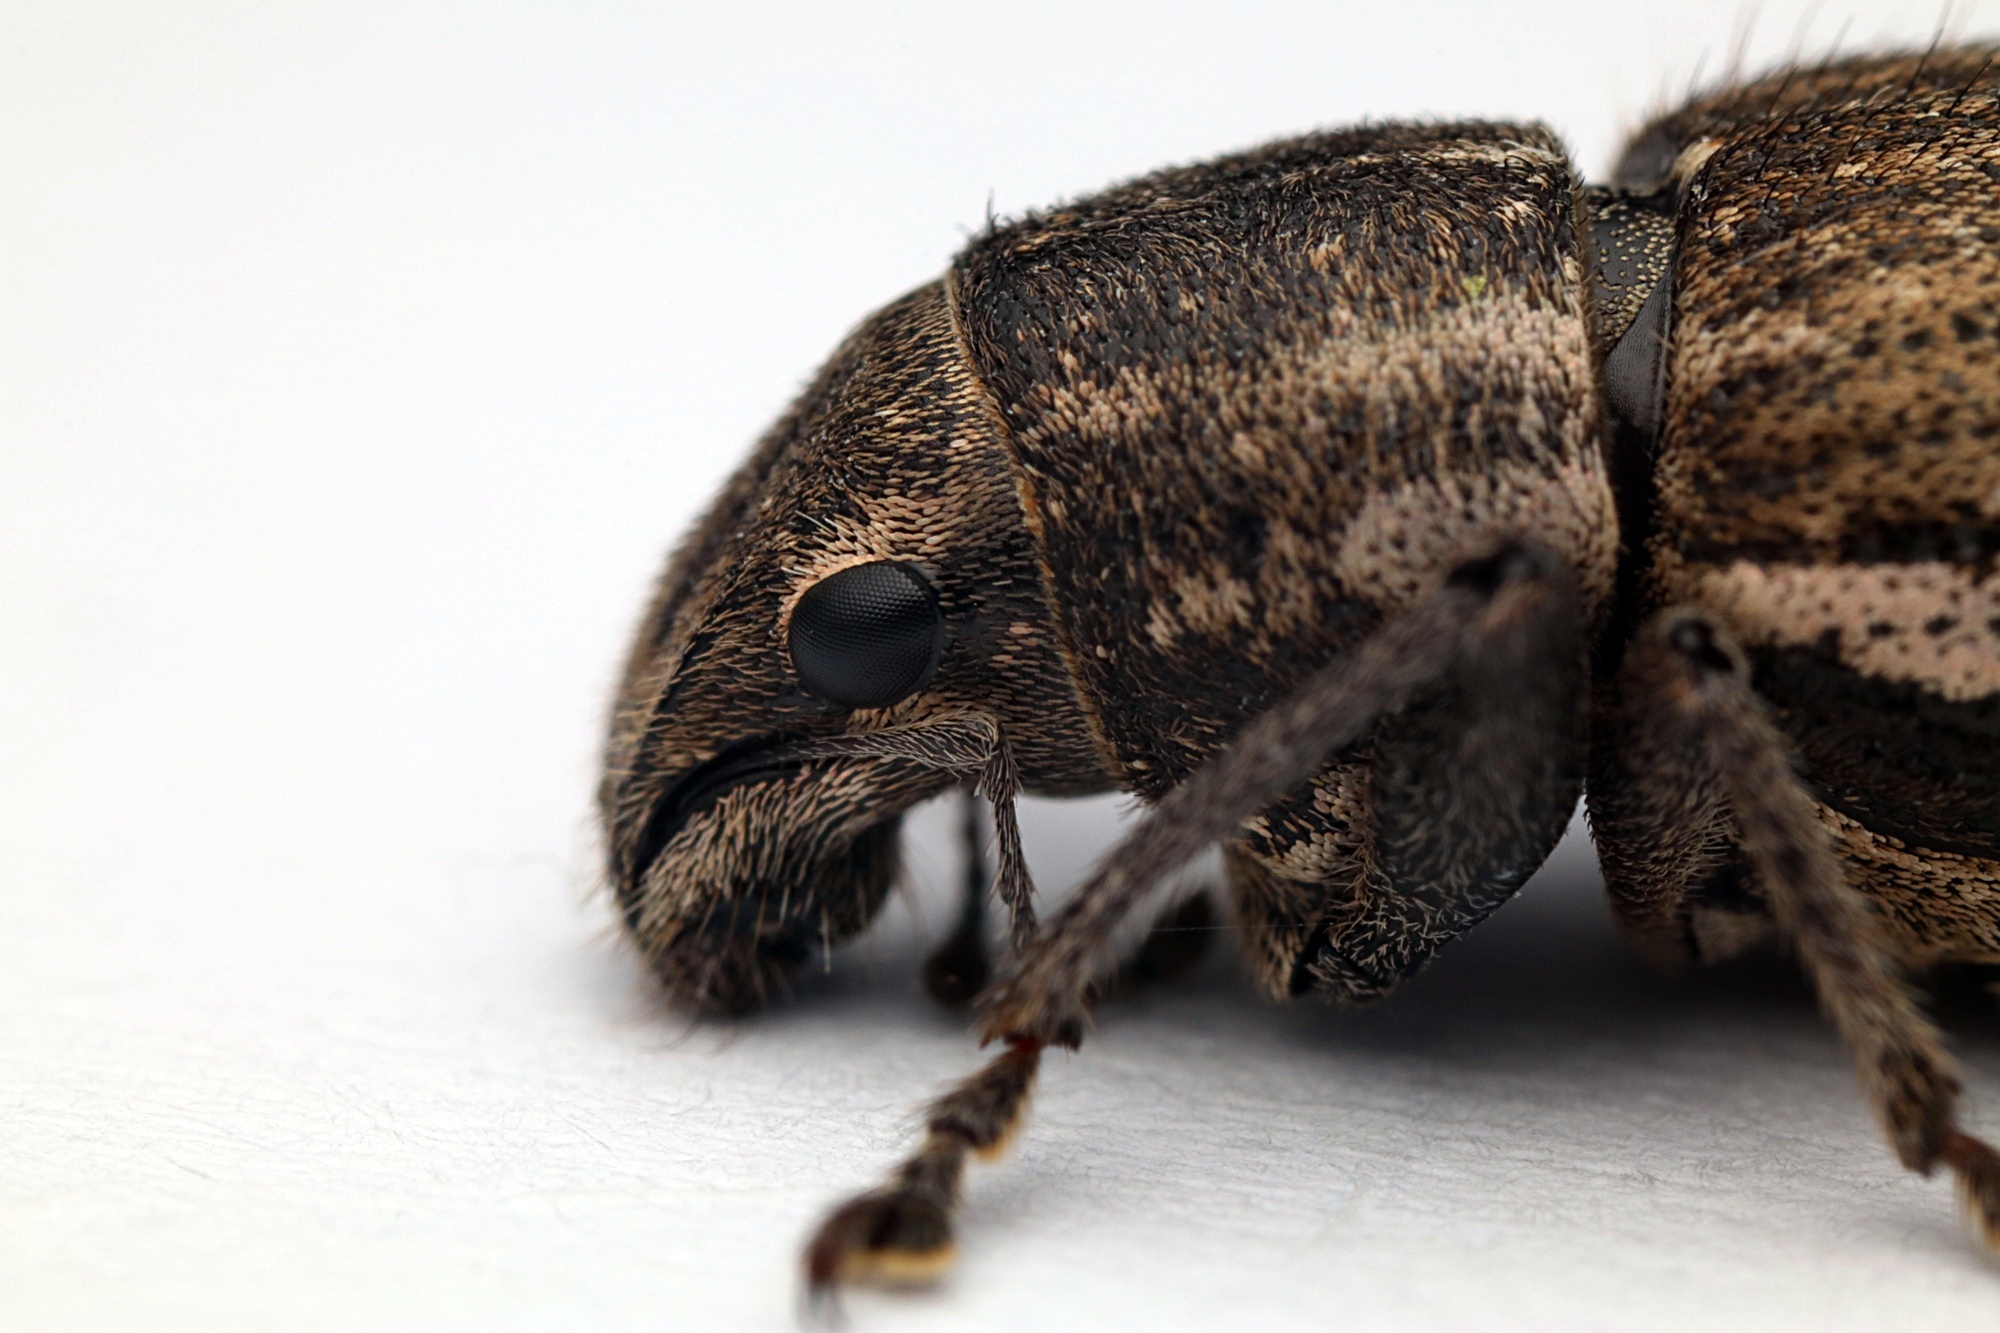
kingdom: Animalia
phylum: Arthropoda
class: Insecta
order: Coleoptera
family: Curculionidae
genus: Naupactus
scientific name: Naupactus leucoloma
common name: Whitefringed beetle
